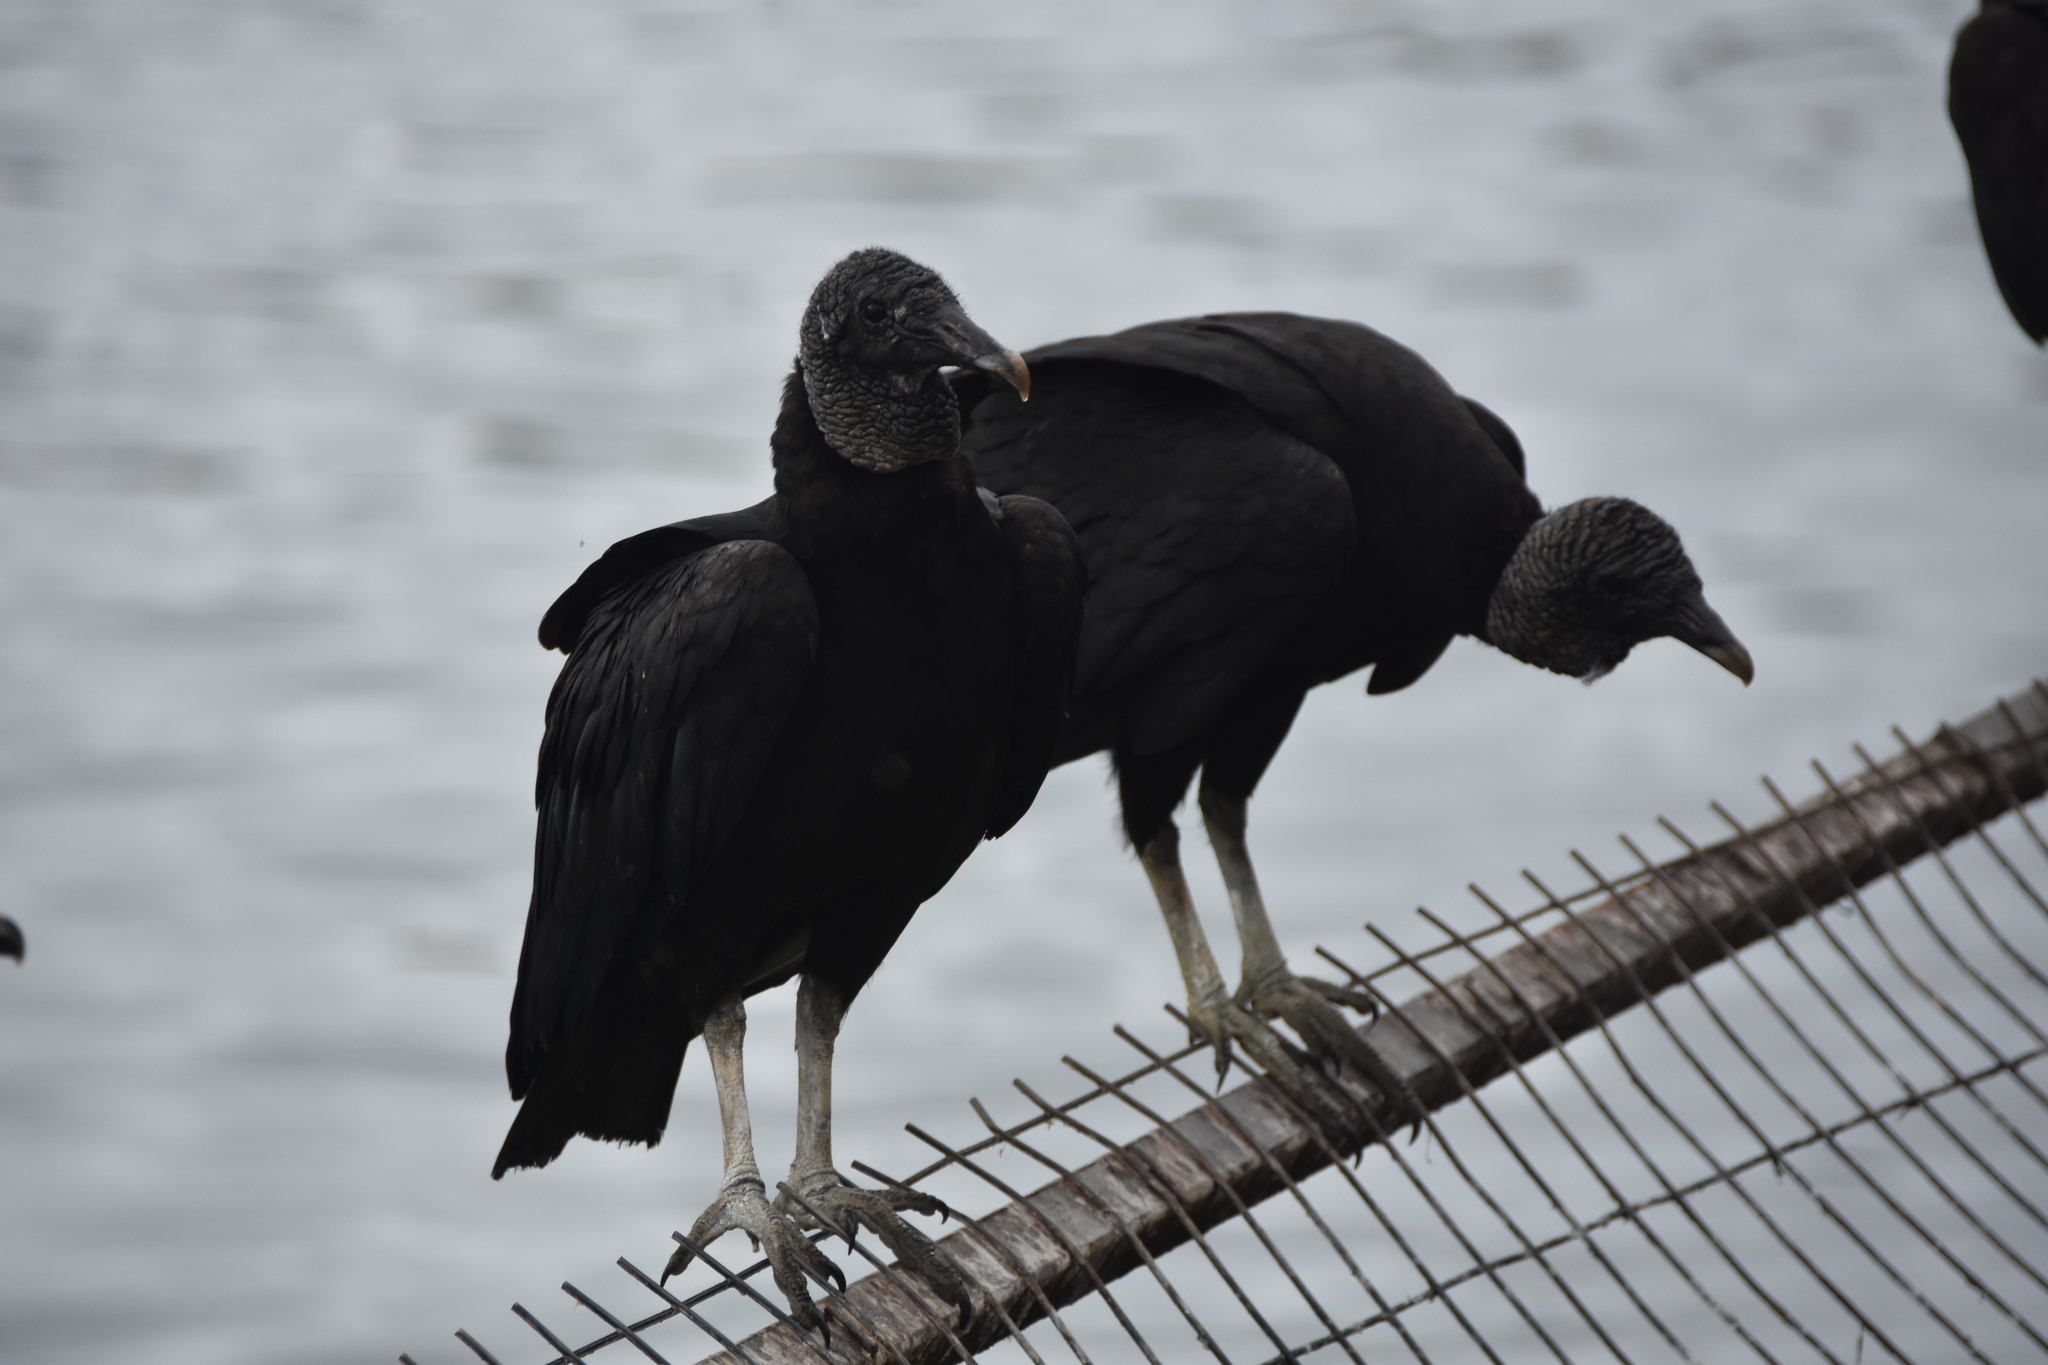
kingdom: Animalia
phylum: Chordata
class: Aves
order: Accipitriformes
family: Cathartidae
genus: Coragyps
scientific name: Coragyps atratus
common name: Black vulture
